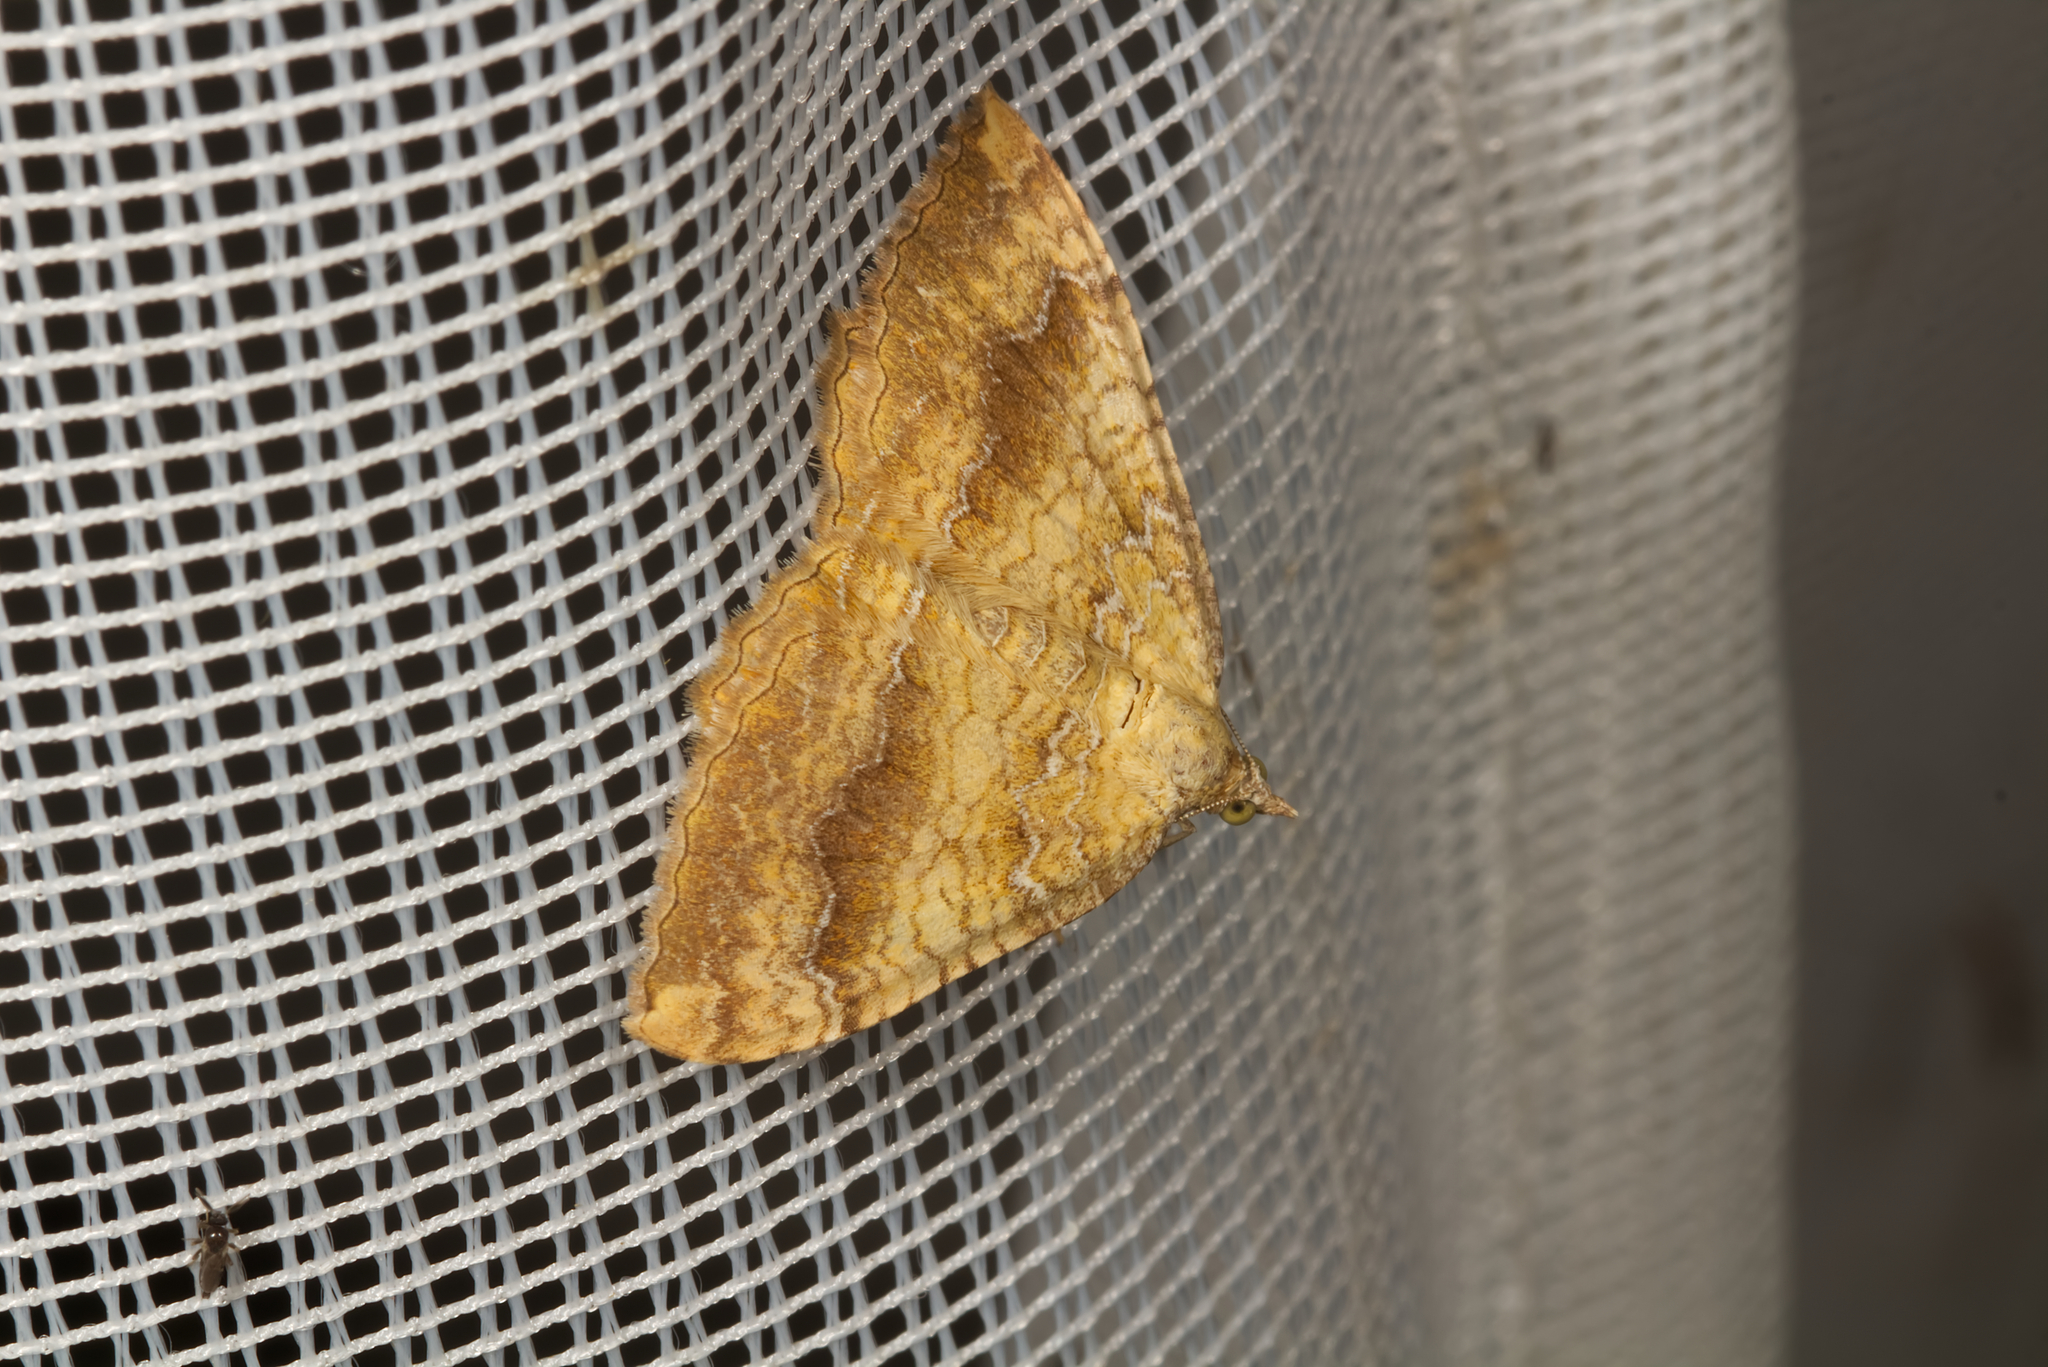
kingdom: Animalia
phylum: Arthropoda
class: Insecta
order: Lepidoptera
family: Geometridae
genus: Camptogramma
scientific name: Camptogramma bilineata
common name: Yellow shell
